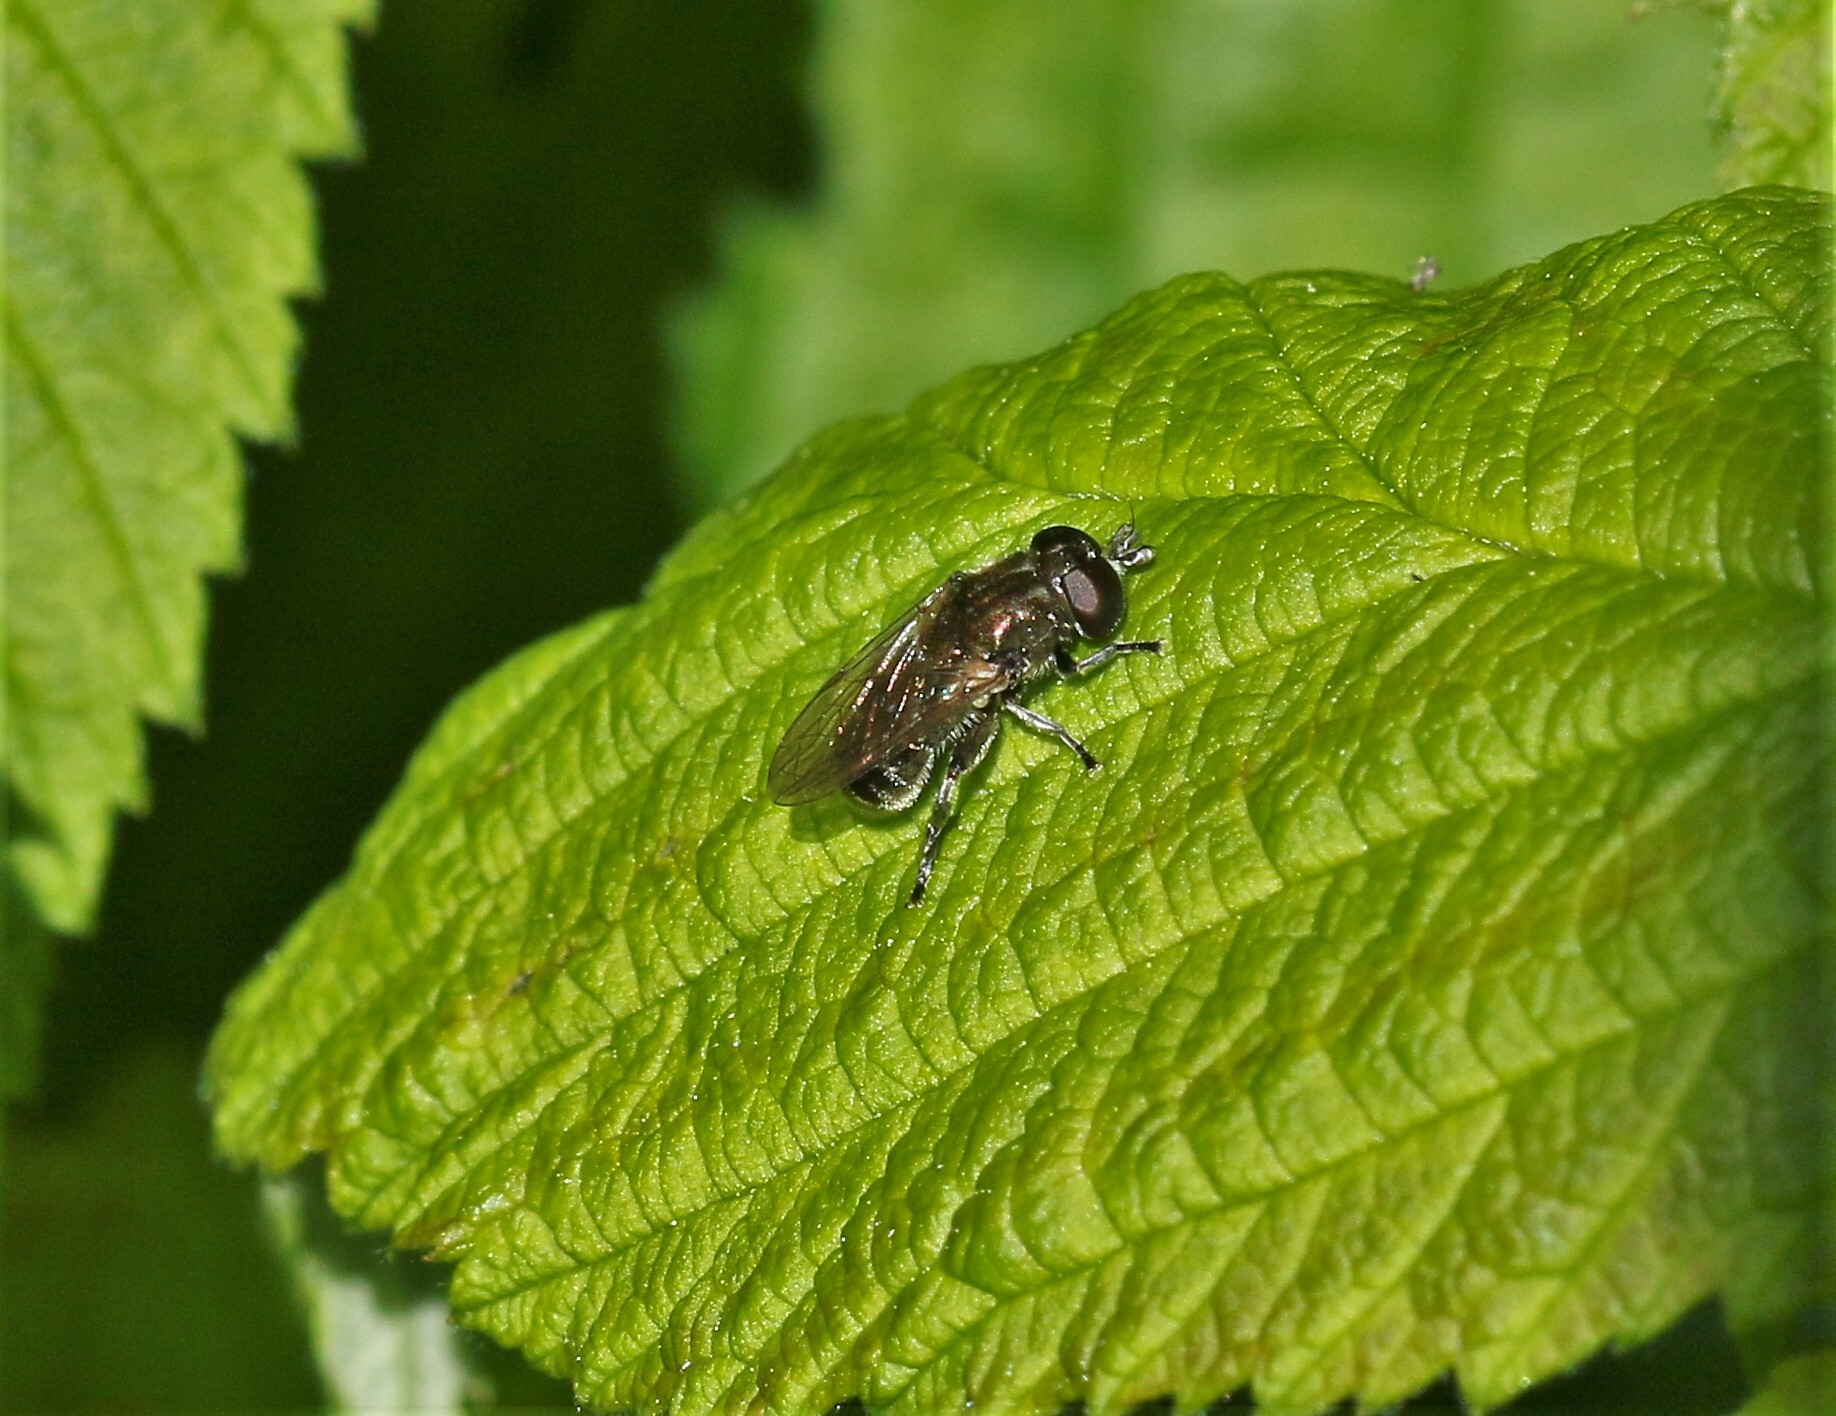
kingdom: Animalia
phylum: Arthropoda
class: Insecta
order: Diptera
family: Syrphidae
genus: Eumerus
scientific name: Eumerus
